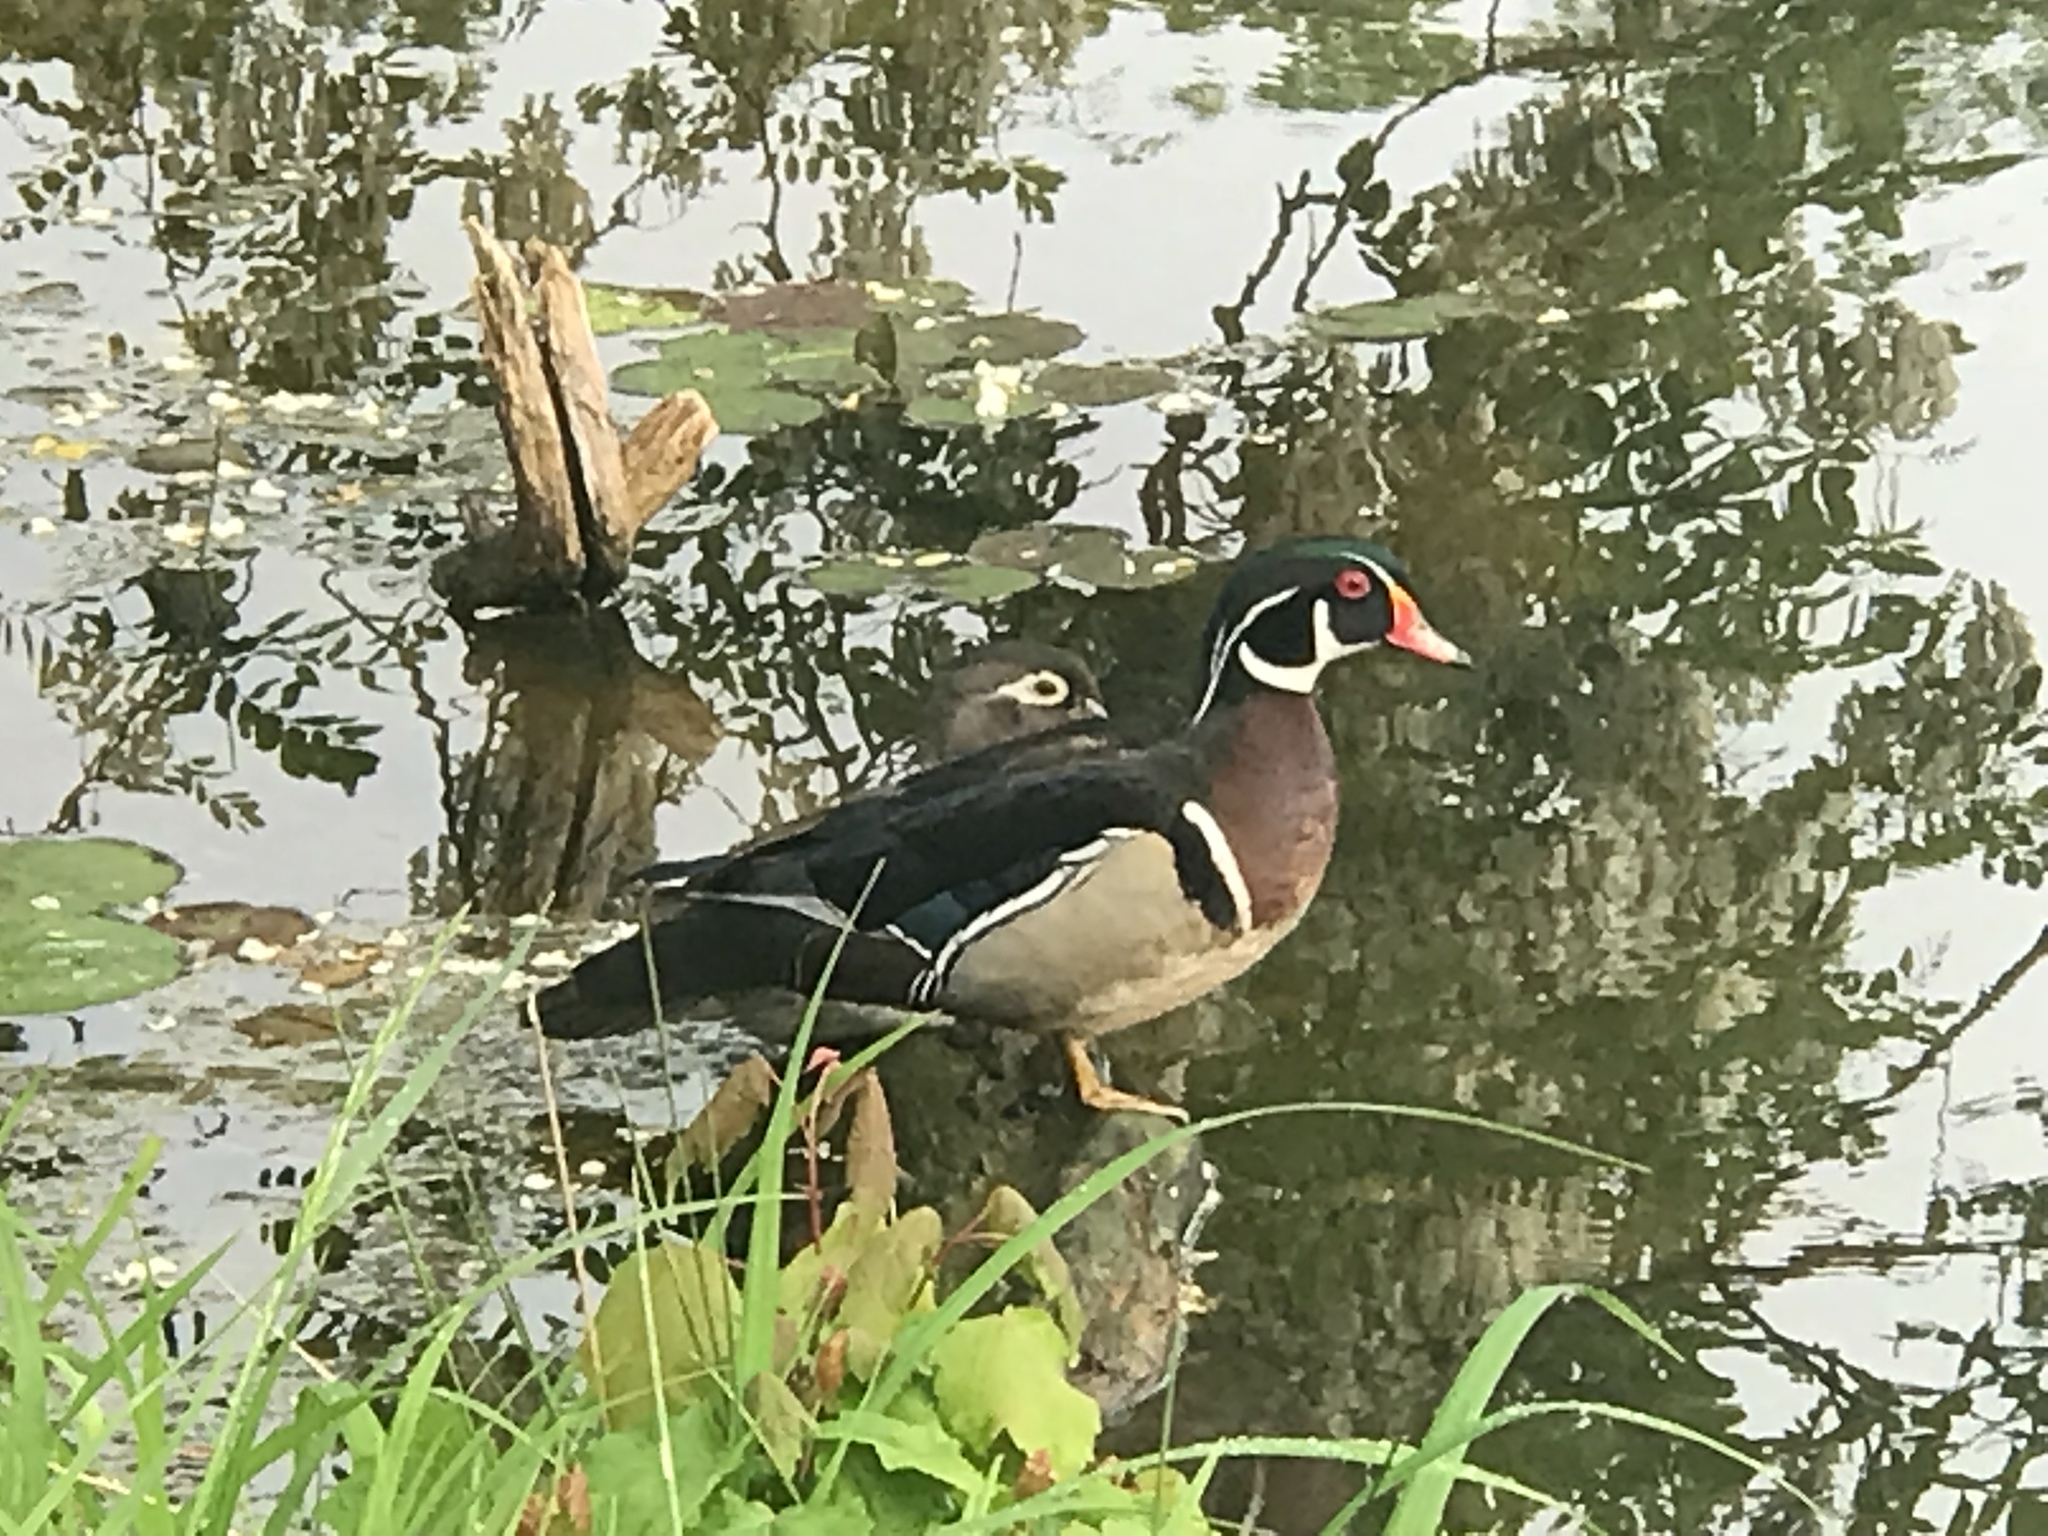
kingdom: Animalia
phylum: Chordata
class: Aves
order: Anseriformes
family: Anatidae
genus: Aix
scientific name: Aix sponsa
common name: Wood duck
